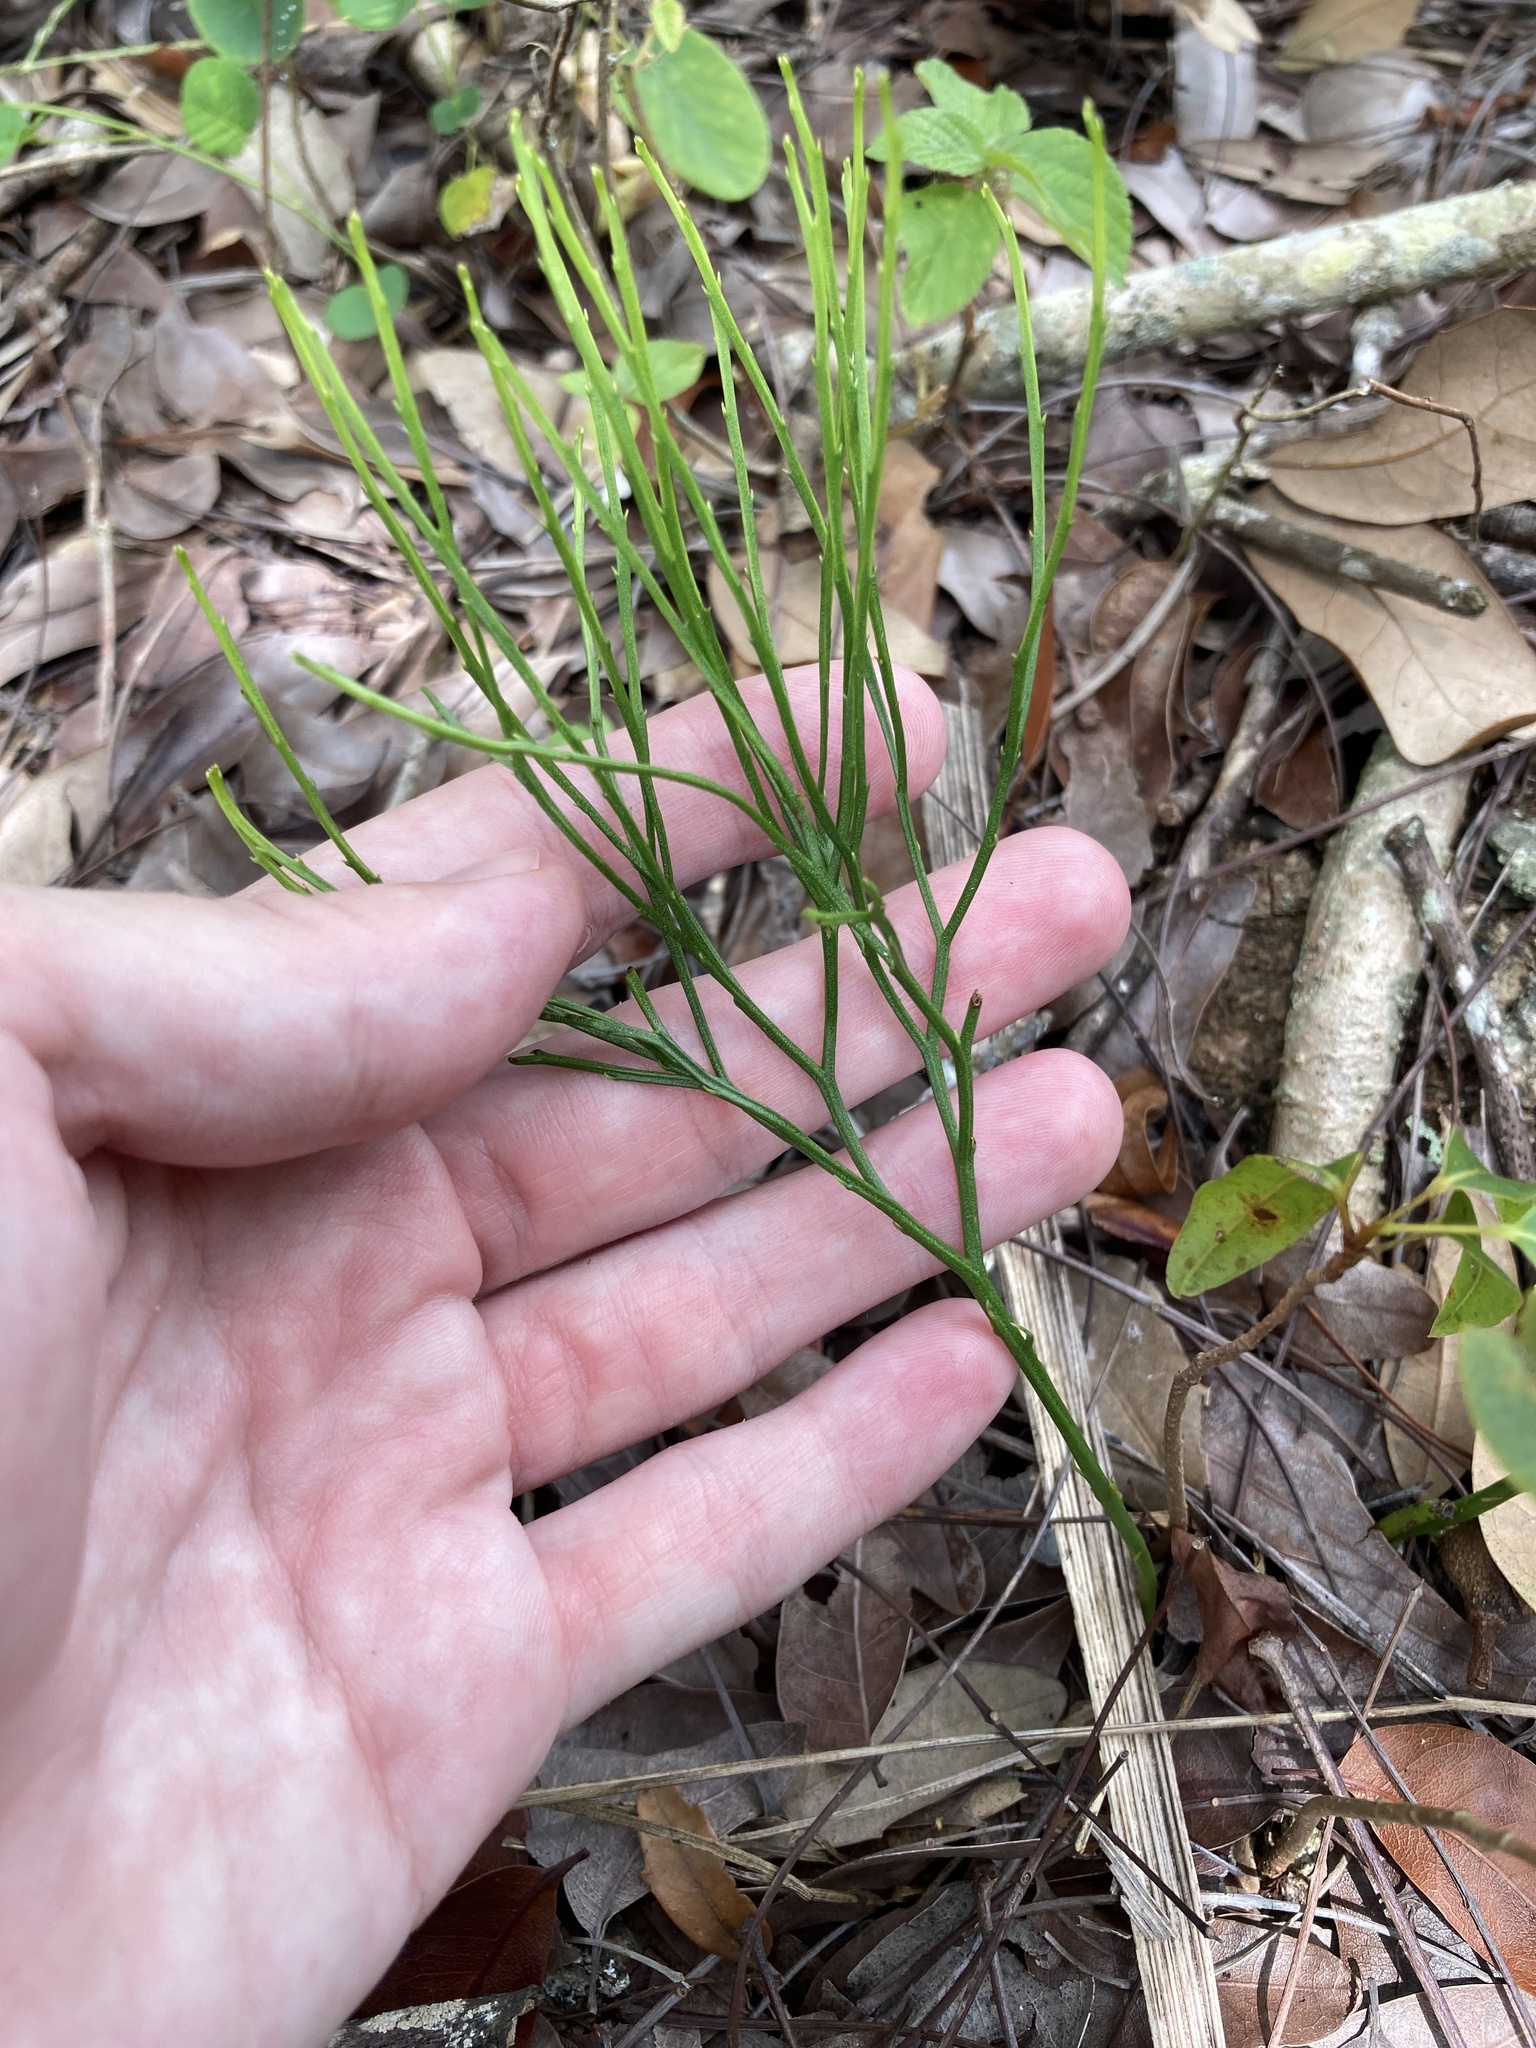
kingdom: Plantae
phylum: Tracheophyta
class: Polypodiopsida
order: Psilotales
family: Psilotaceae
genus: Psilotum
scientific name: Psilotum nudum
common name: Skeleton fork fern
